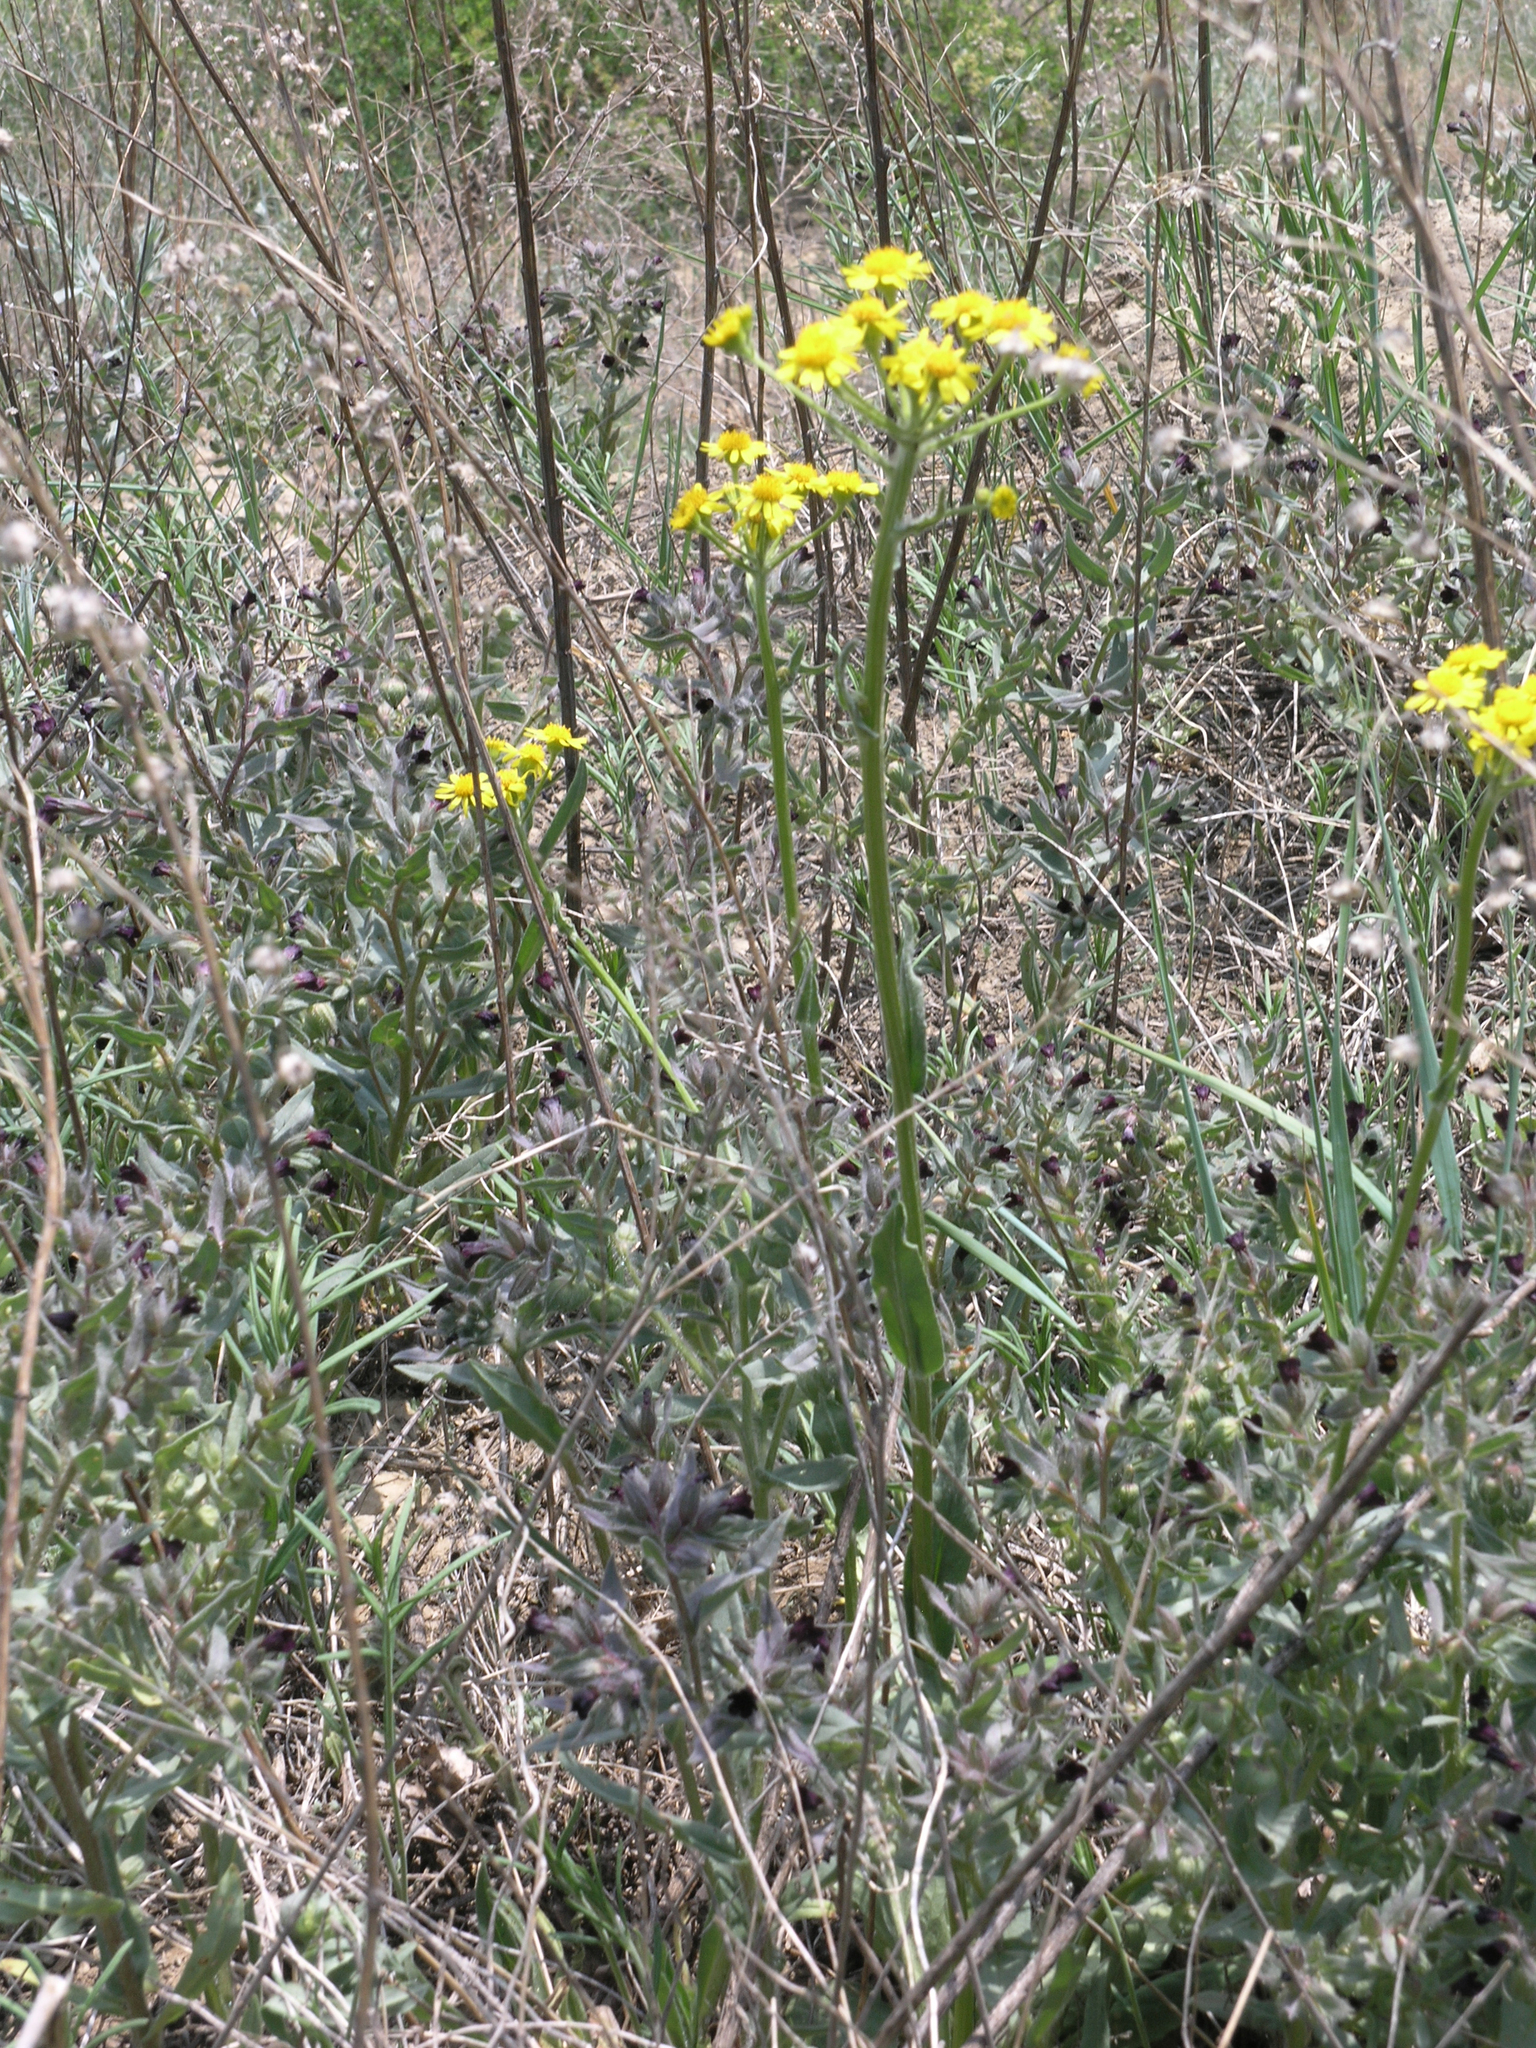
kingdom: Plantae
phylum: Tracheophyta
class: Magnoliopsida
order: Boraginales
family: Boraginaceae
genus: Nonea
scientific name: Nonea pulla
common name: Brown nonea
